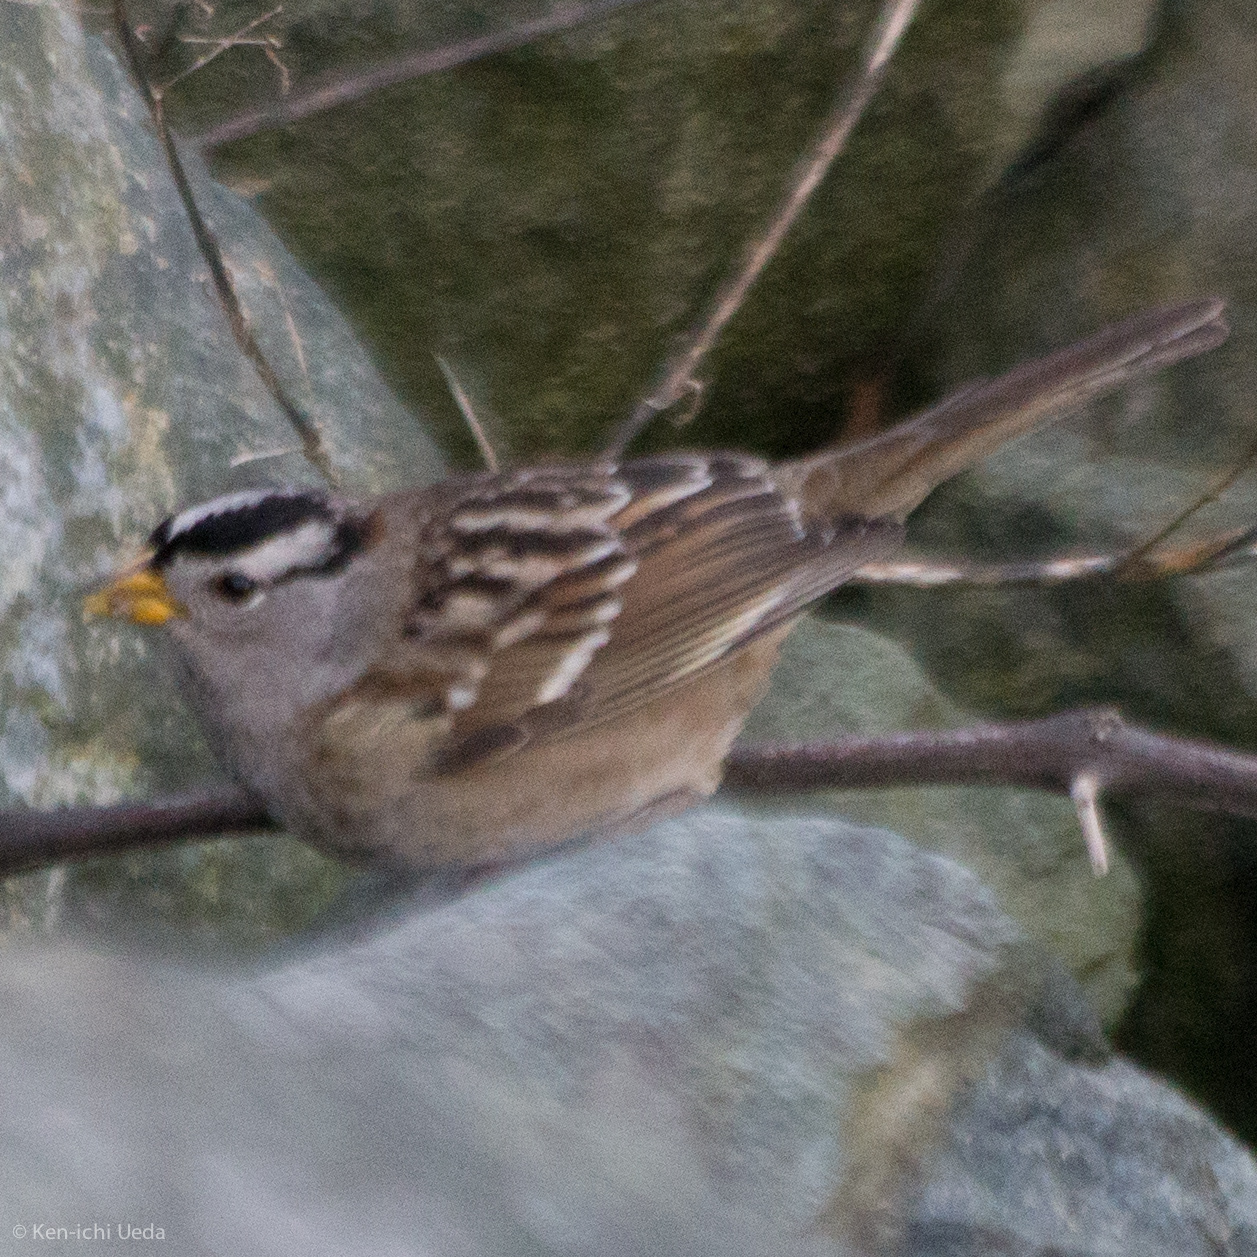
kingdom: Animalia
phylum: Chordata
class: Aves
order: Passeriformes
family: Passerellidae
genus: Zonotrichia
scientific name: Zonotrichia leucophrys
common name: White-crowned sparrow
